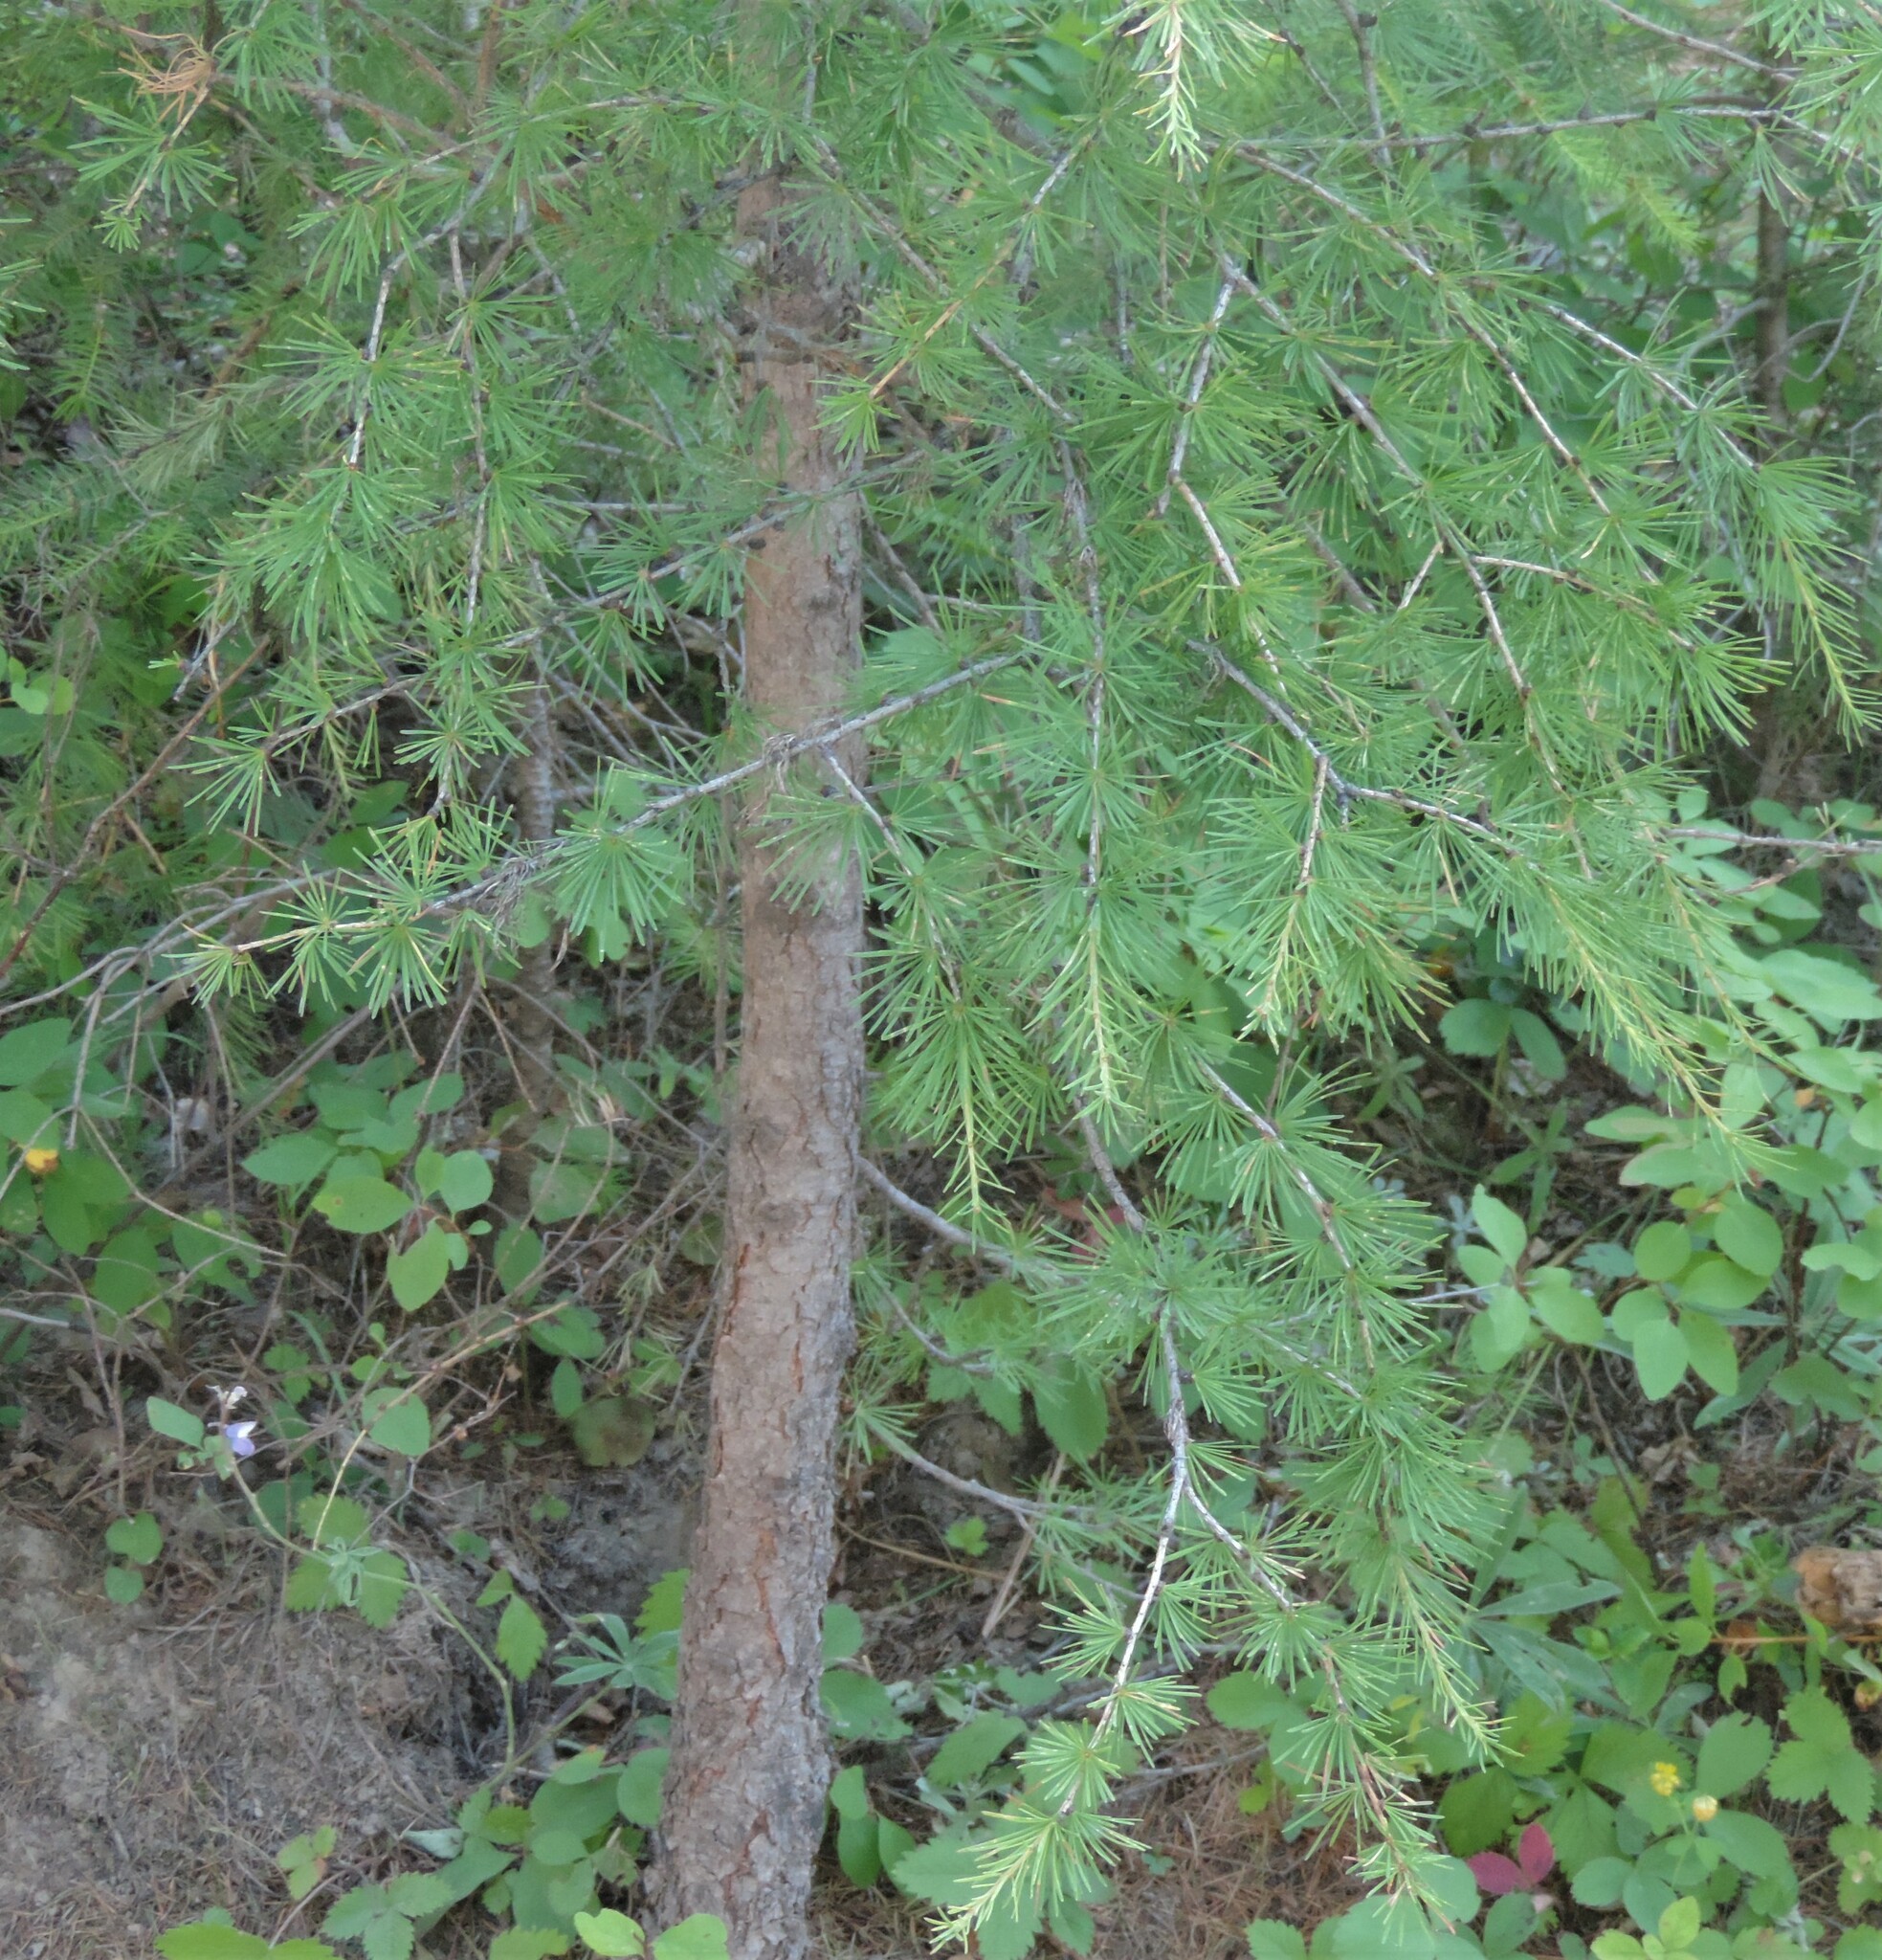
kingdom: Plantae
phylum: Tracheophyta
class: Pinopsida
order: Pinales
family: Pinaceae
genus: Larix
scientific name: Larix occidentalis
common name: Western larch
